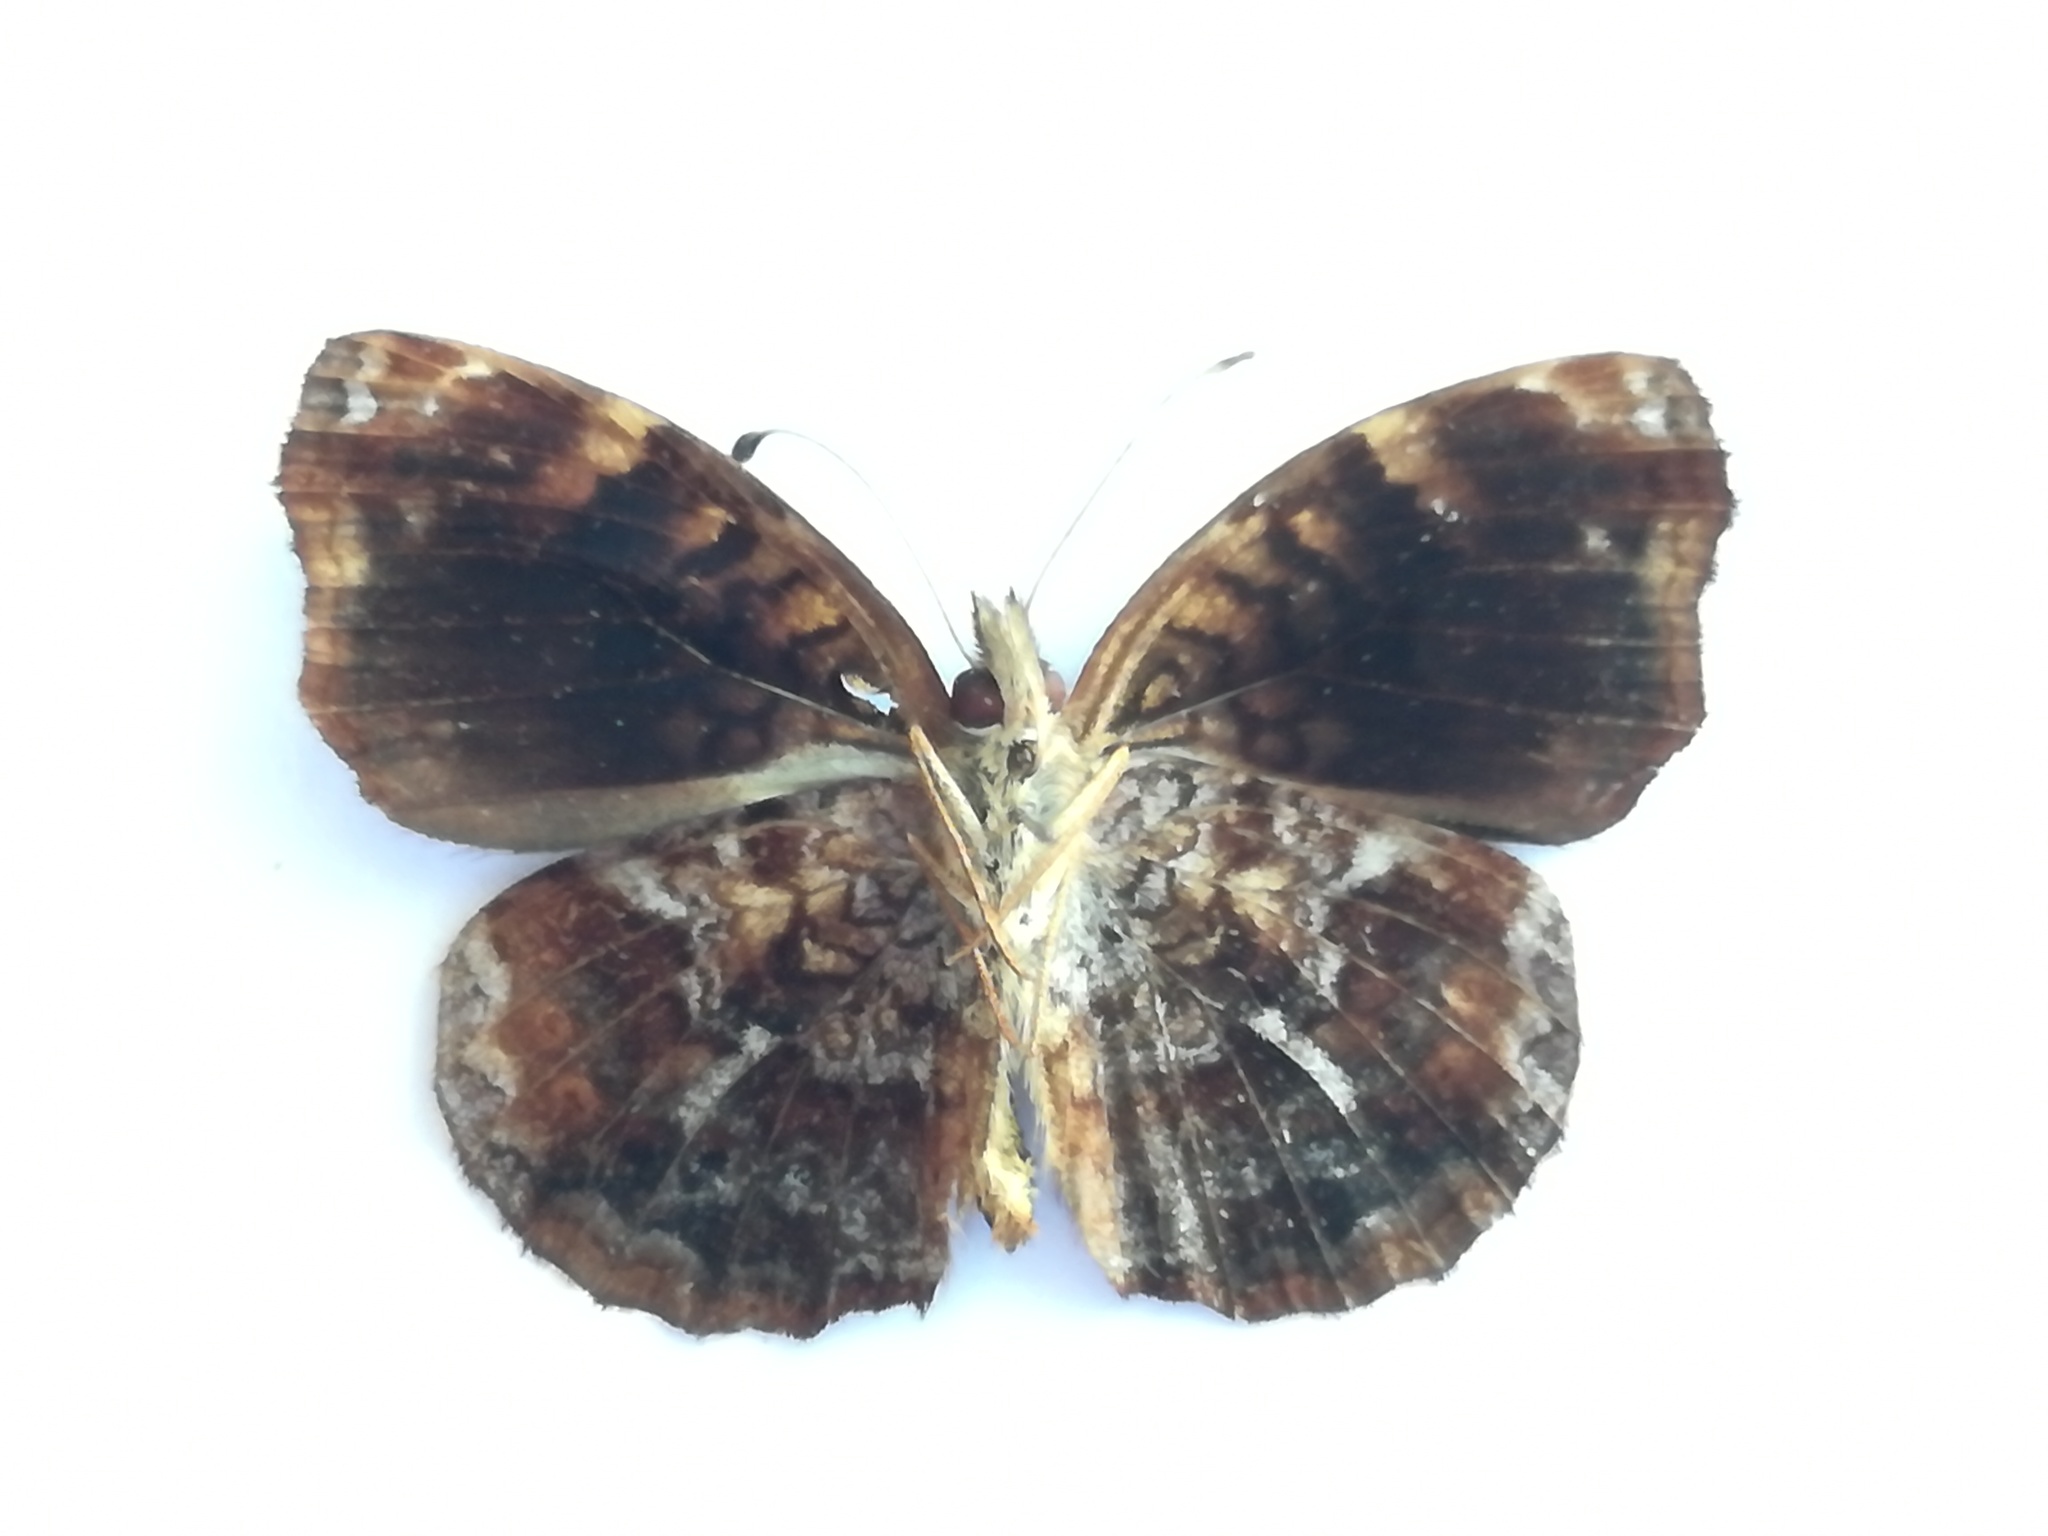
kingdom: Animalia
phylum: Arthropoda
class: Insecta
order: Lepidoptera
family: Nymphalidae
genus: Anthanassa
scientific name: Anthanassa otanes
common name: Blackened crescent
